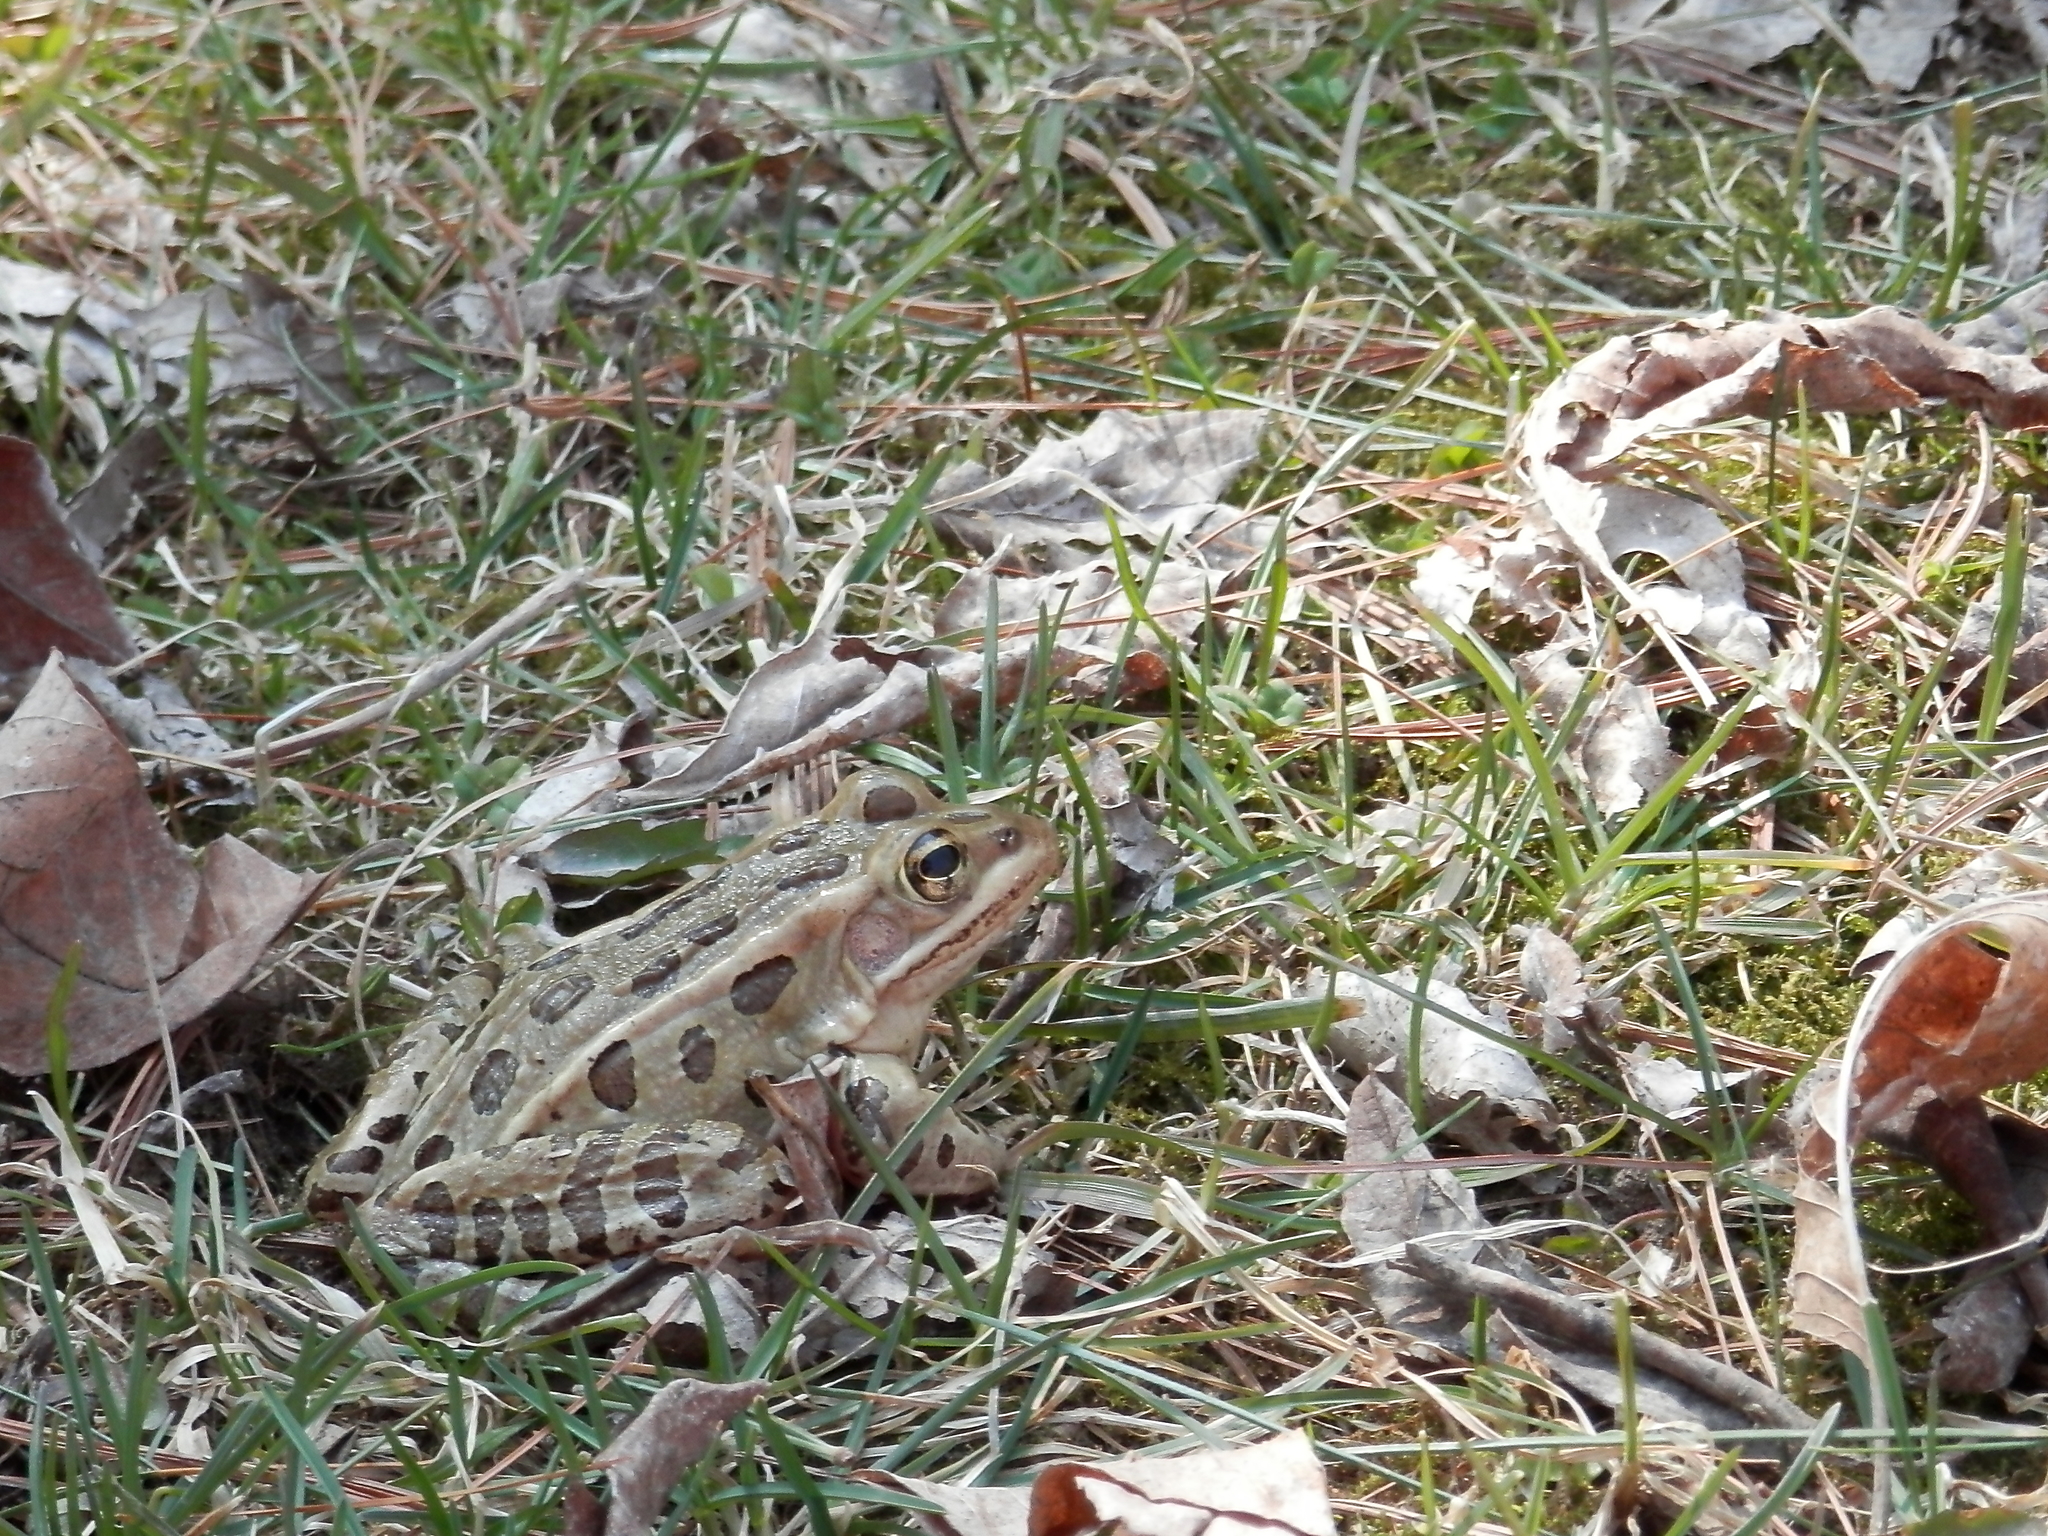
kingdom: Animalia
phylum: Chordata
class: Amphibia
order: Anura
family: Ranidae
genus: Lithobates
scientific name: Lithobates pipiens
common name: Northern leopard frog
